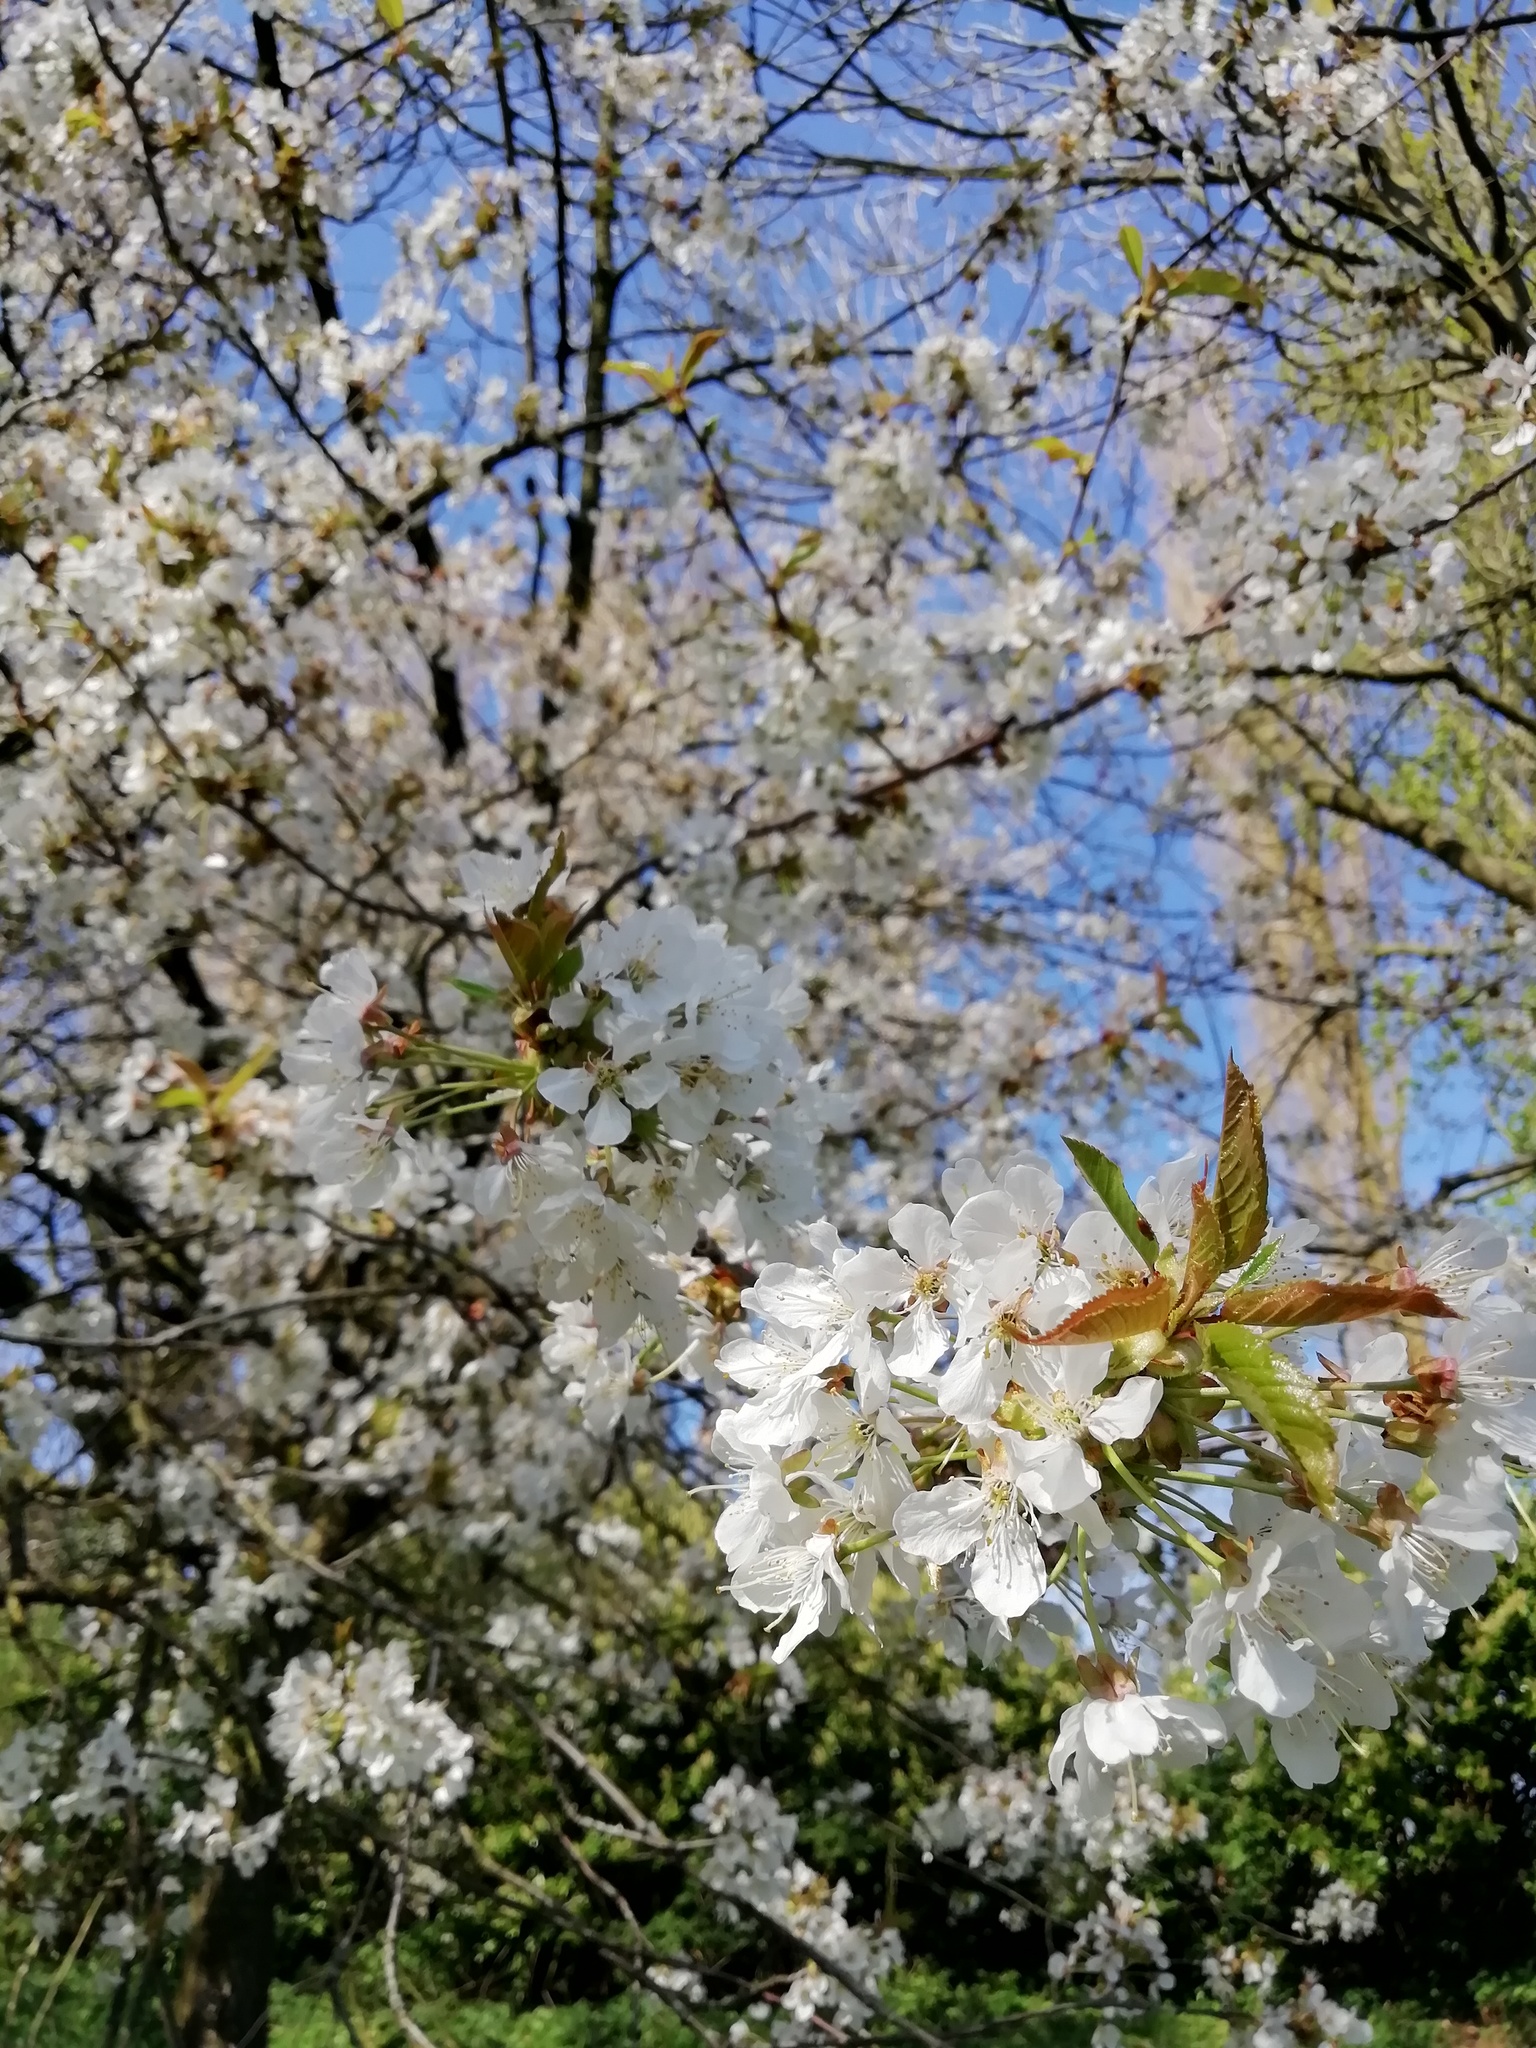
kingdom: Plantae
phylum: Tracheophyta
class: Magnoliopsida
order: Rosales
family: Rosaceae
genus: Prunus
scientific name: Prunus avium
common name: Sweet cherry
